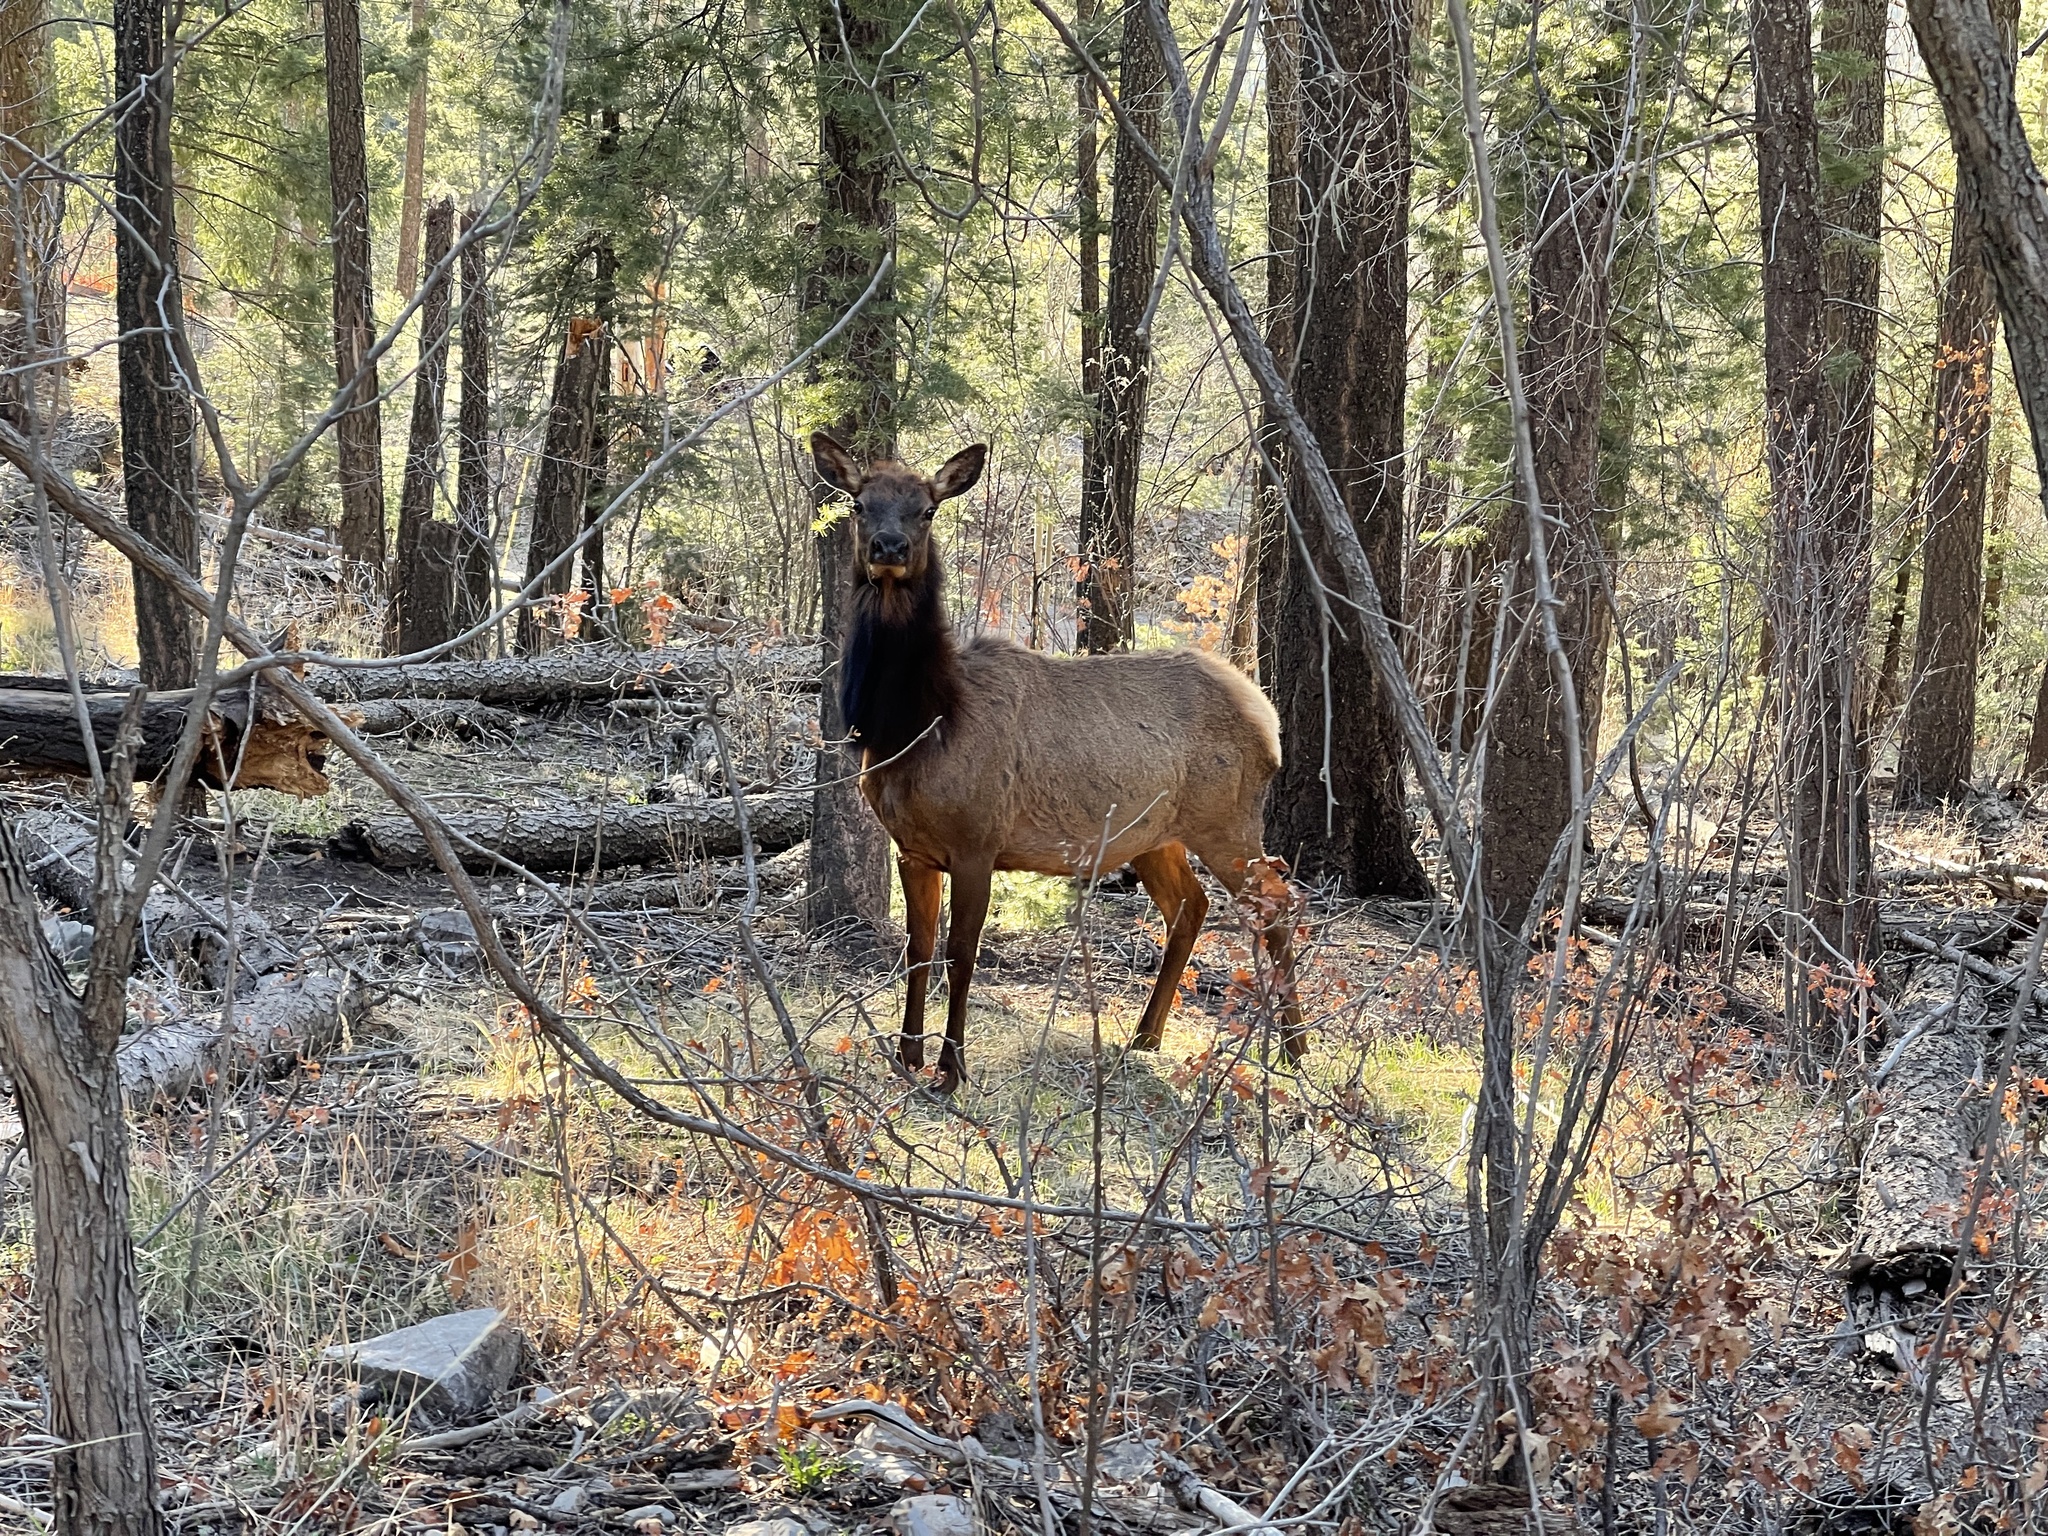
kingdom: Animalia
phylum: Chordata
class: Mammalia
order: Artiodactyla
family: Cervidae
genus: Cervus
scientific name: Cervus elaphus
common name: Red deer
